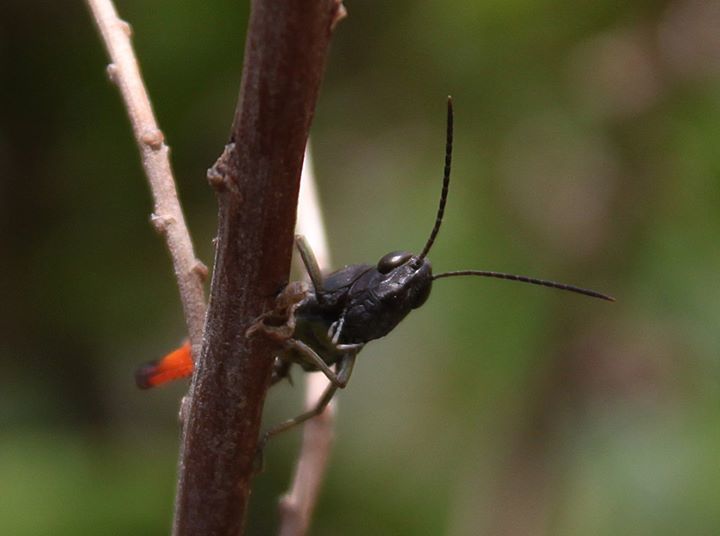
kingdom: Animalia
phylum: Arthropoda
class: Insecta
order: Orthoptera
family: Acrididae
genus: Omocestus
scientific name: Omocestus rufipes
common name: Woodland grasshopper
